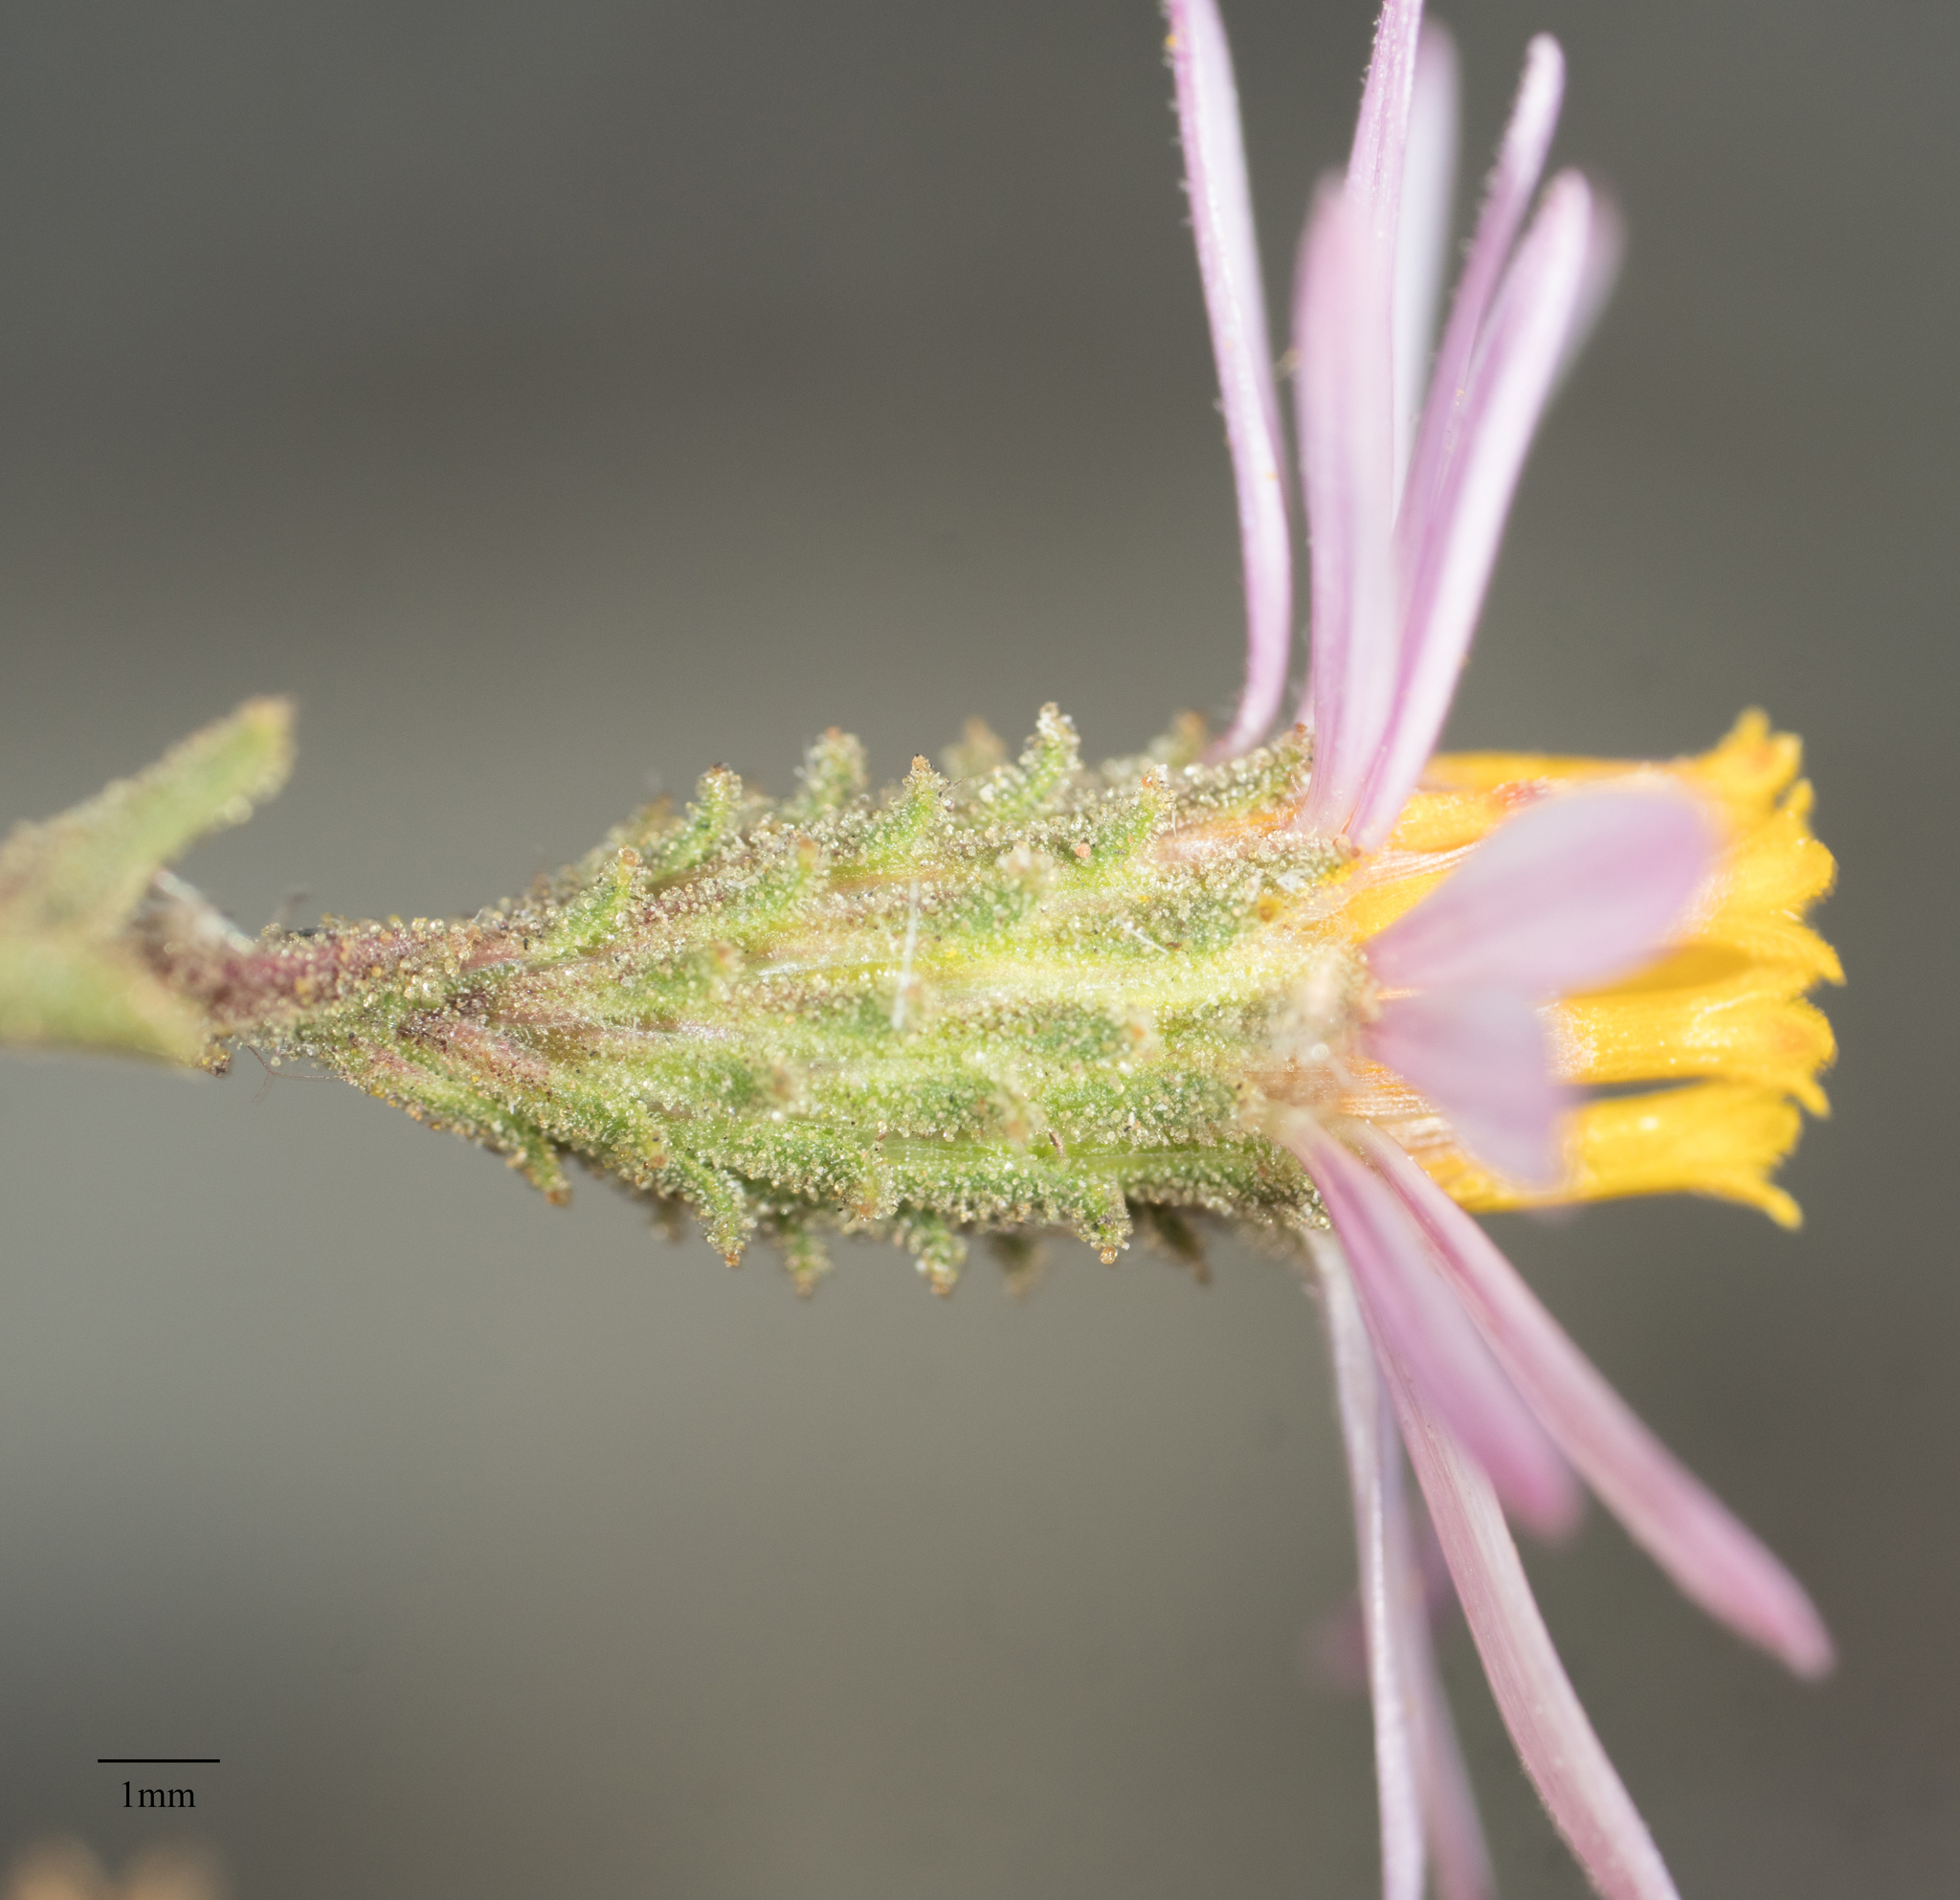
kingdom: Plantae
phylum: Tracheophyta
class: Magnoliopsida
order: Asterales
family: Asteraceae
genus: Corethrogyne
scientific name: Corethrogyne filaginifolia
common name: Sand-aster
